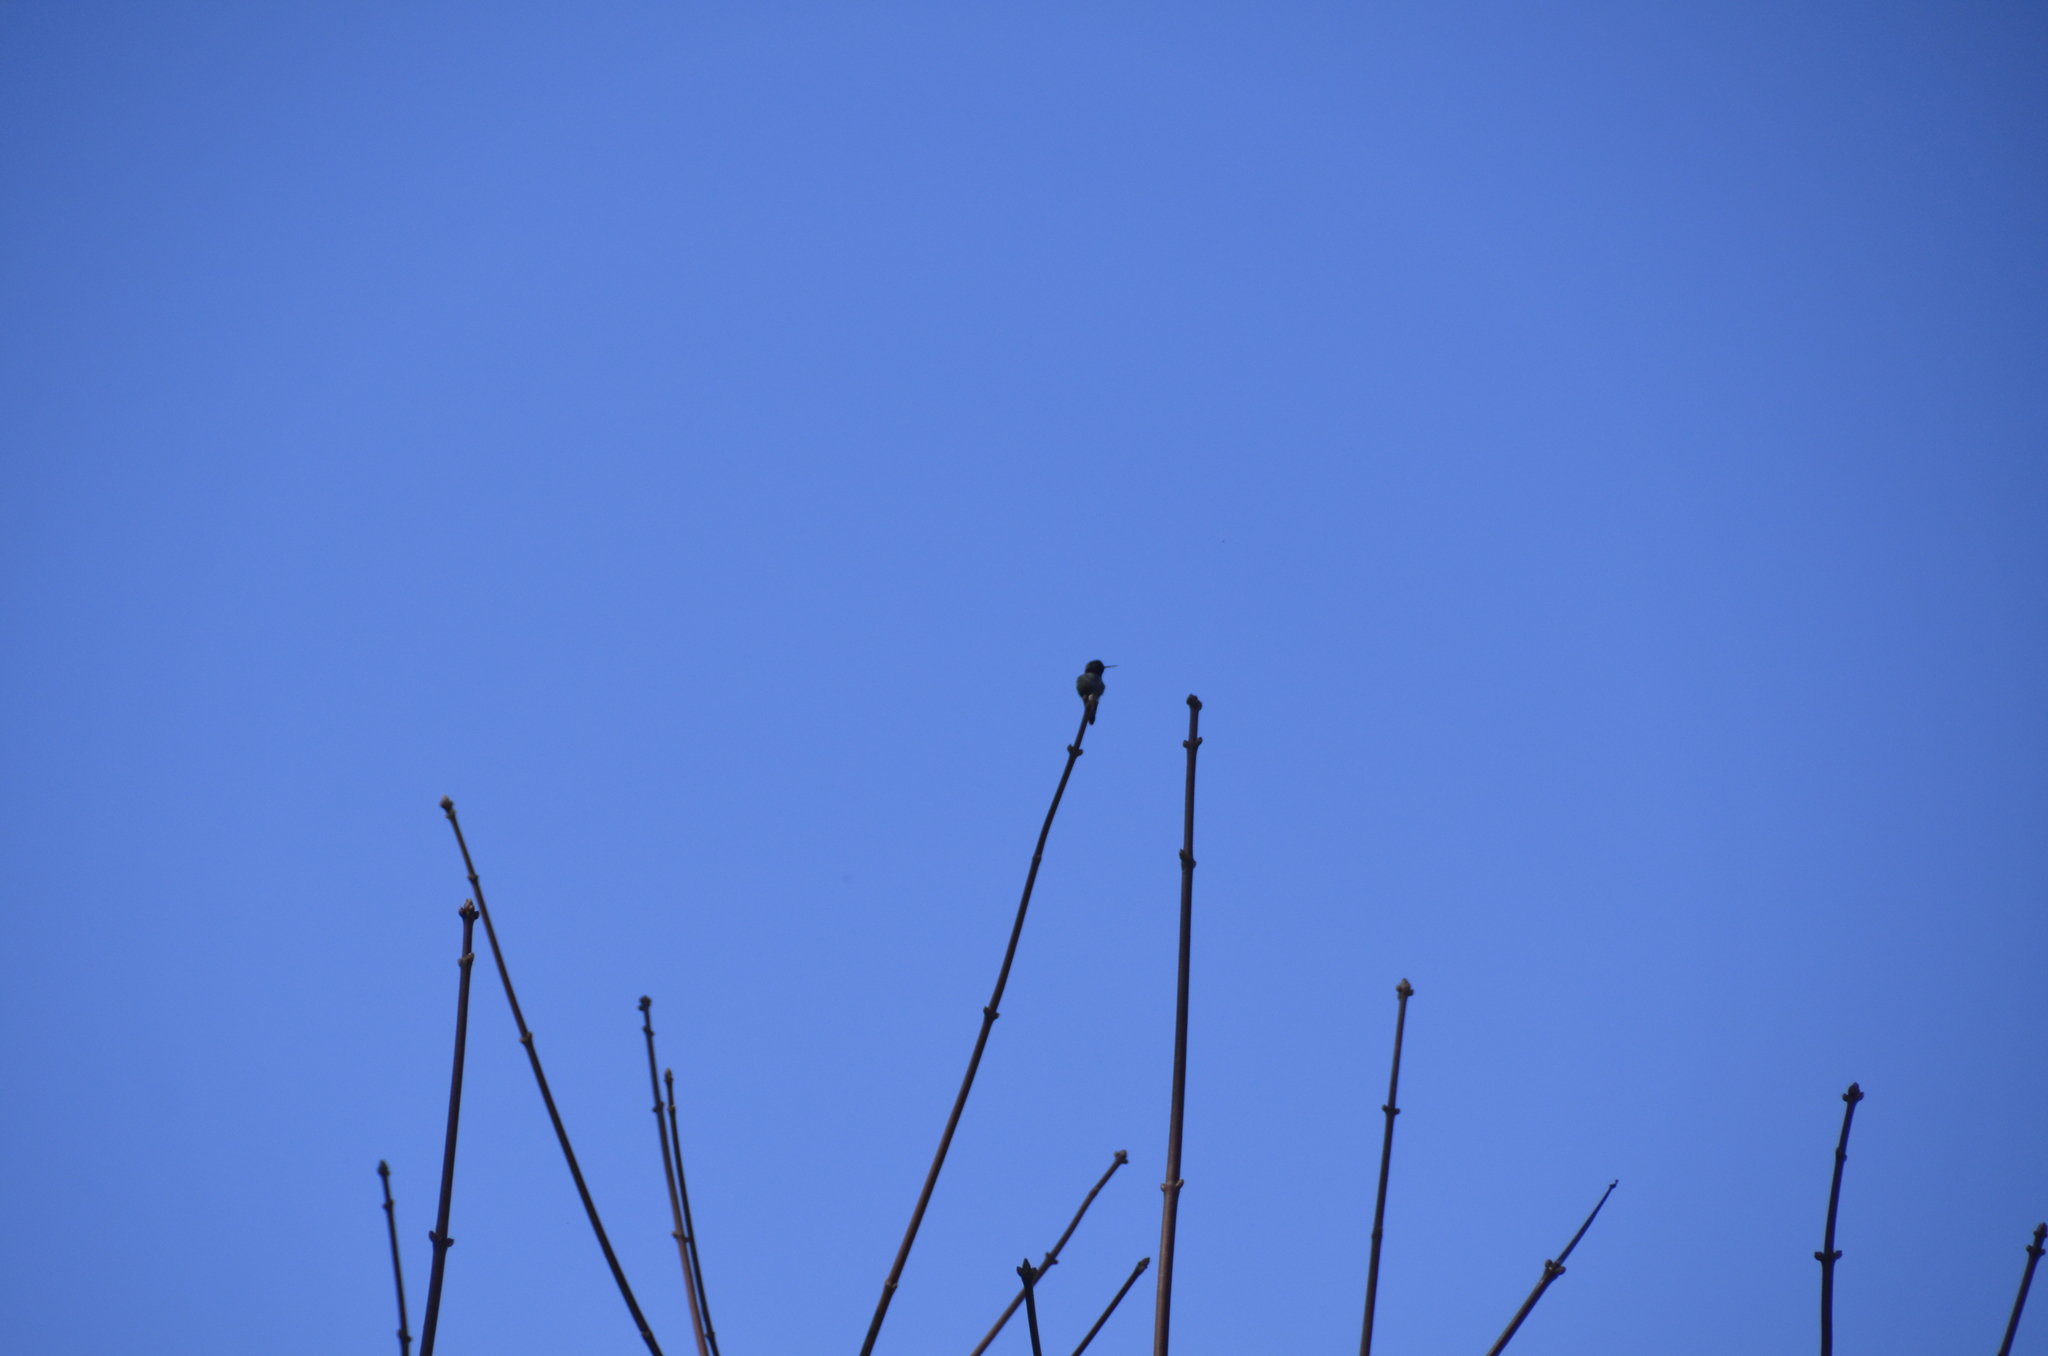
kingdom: Animalia
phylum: Chordata
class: Aves
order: Apodiformes
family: Trochilidae
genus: Calypte
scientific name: Calypte anna
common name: Anna's hummingbird
